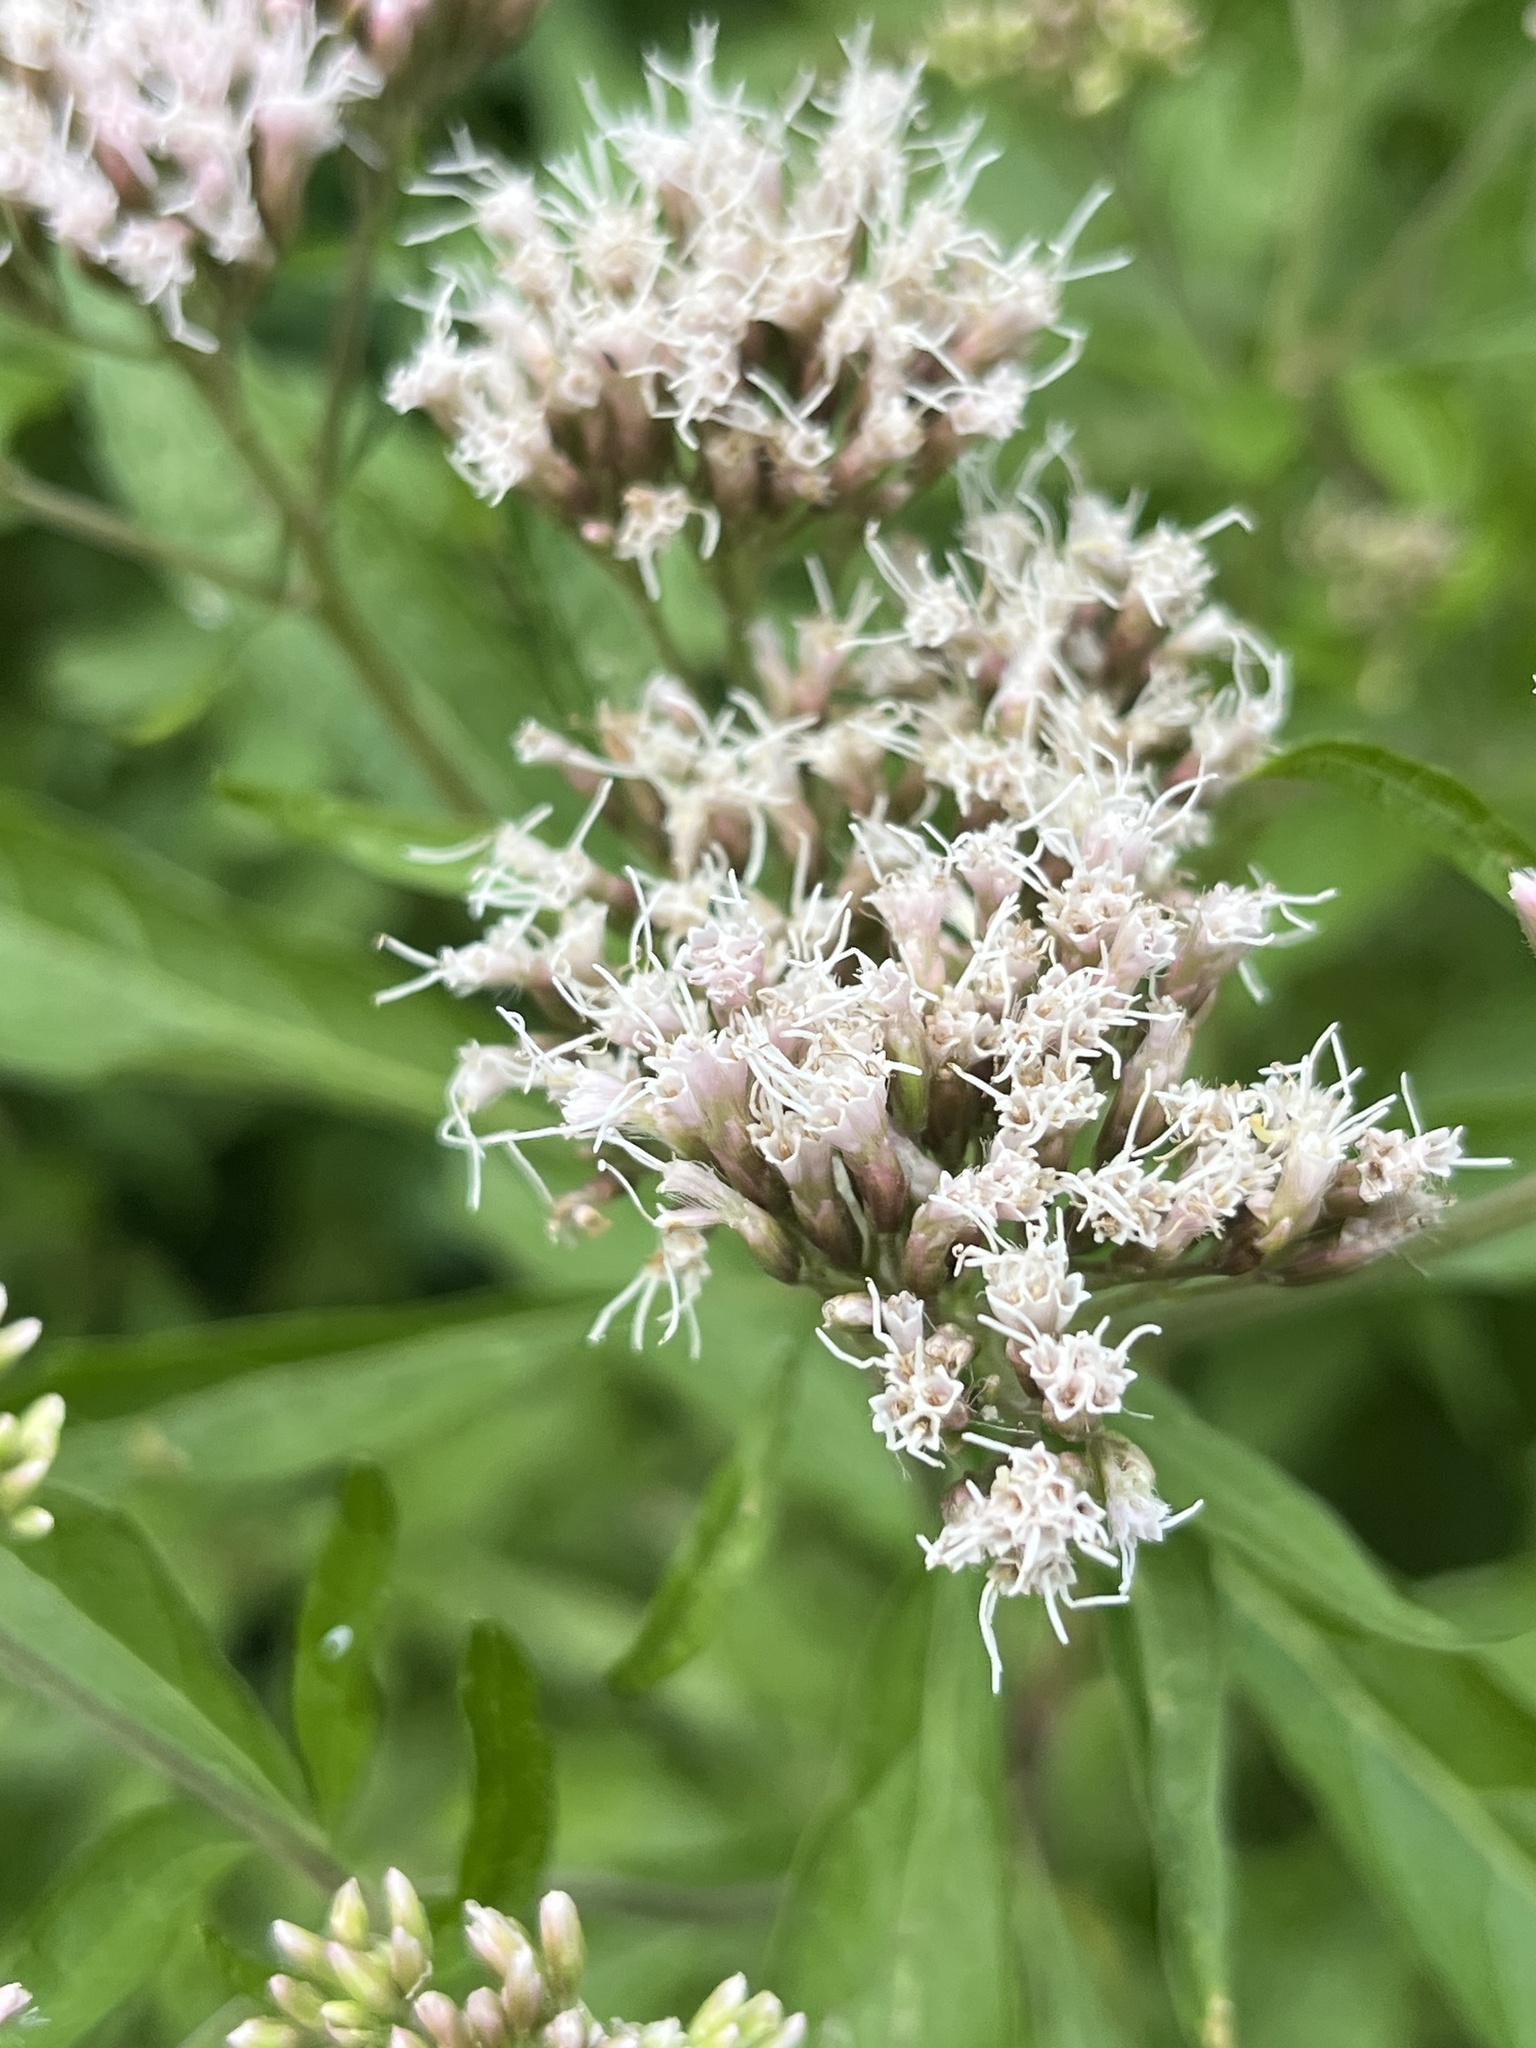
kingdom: Plantae
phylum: Tracheophyta
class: Magnoliopsida
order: Asterales
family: Asteraceae
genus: Eupatorium
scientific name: Eupatorium cannabinum
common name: Hemp-agrimony
